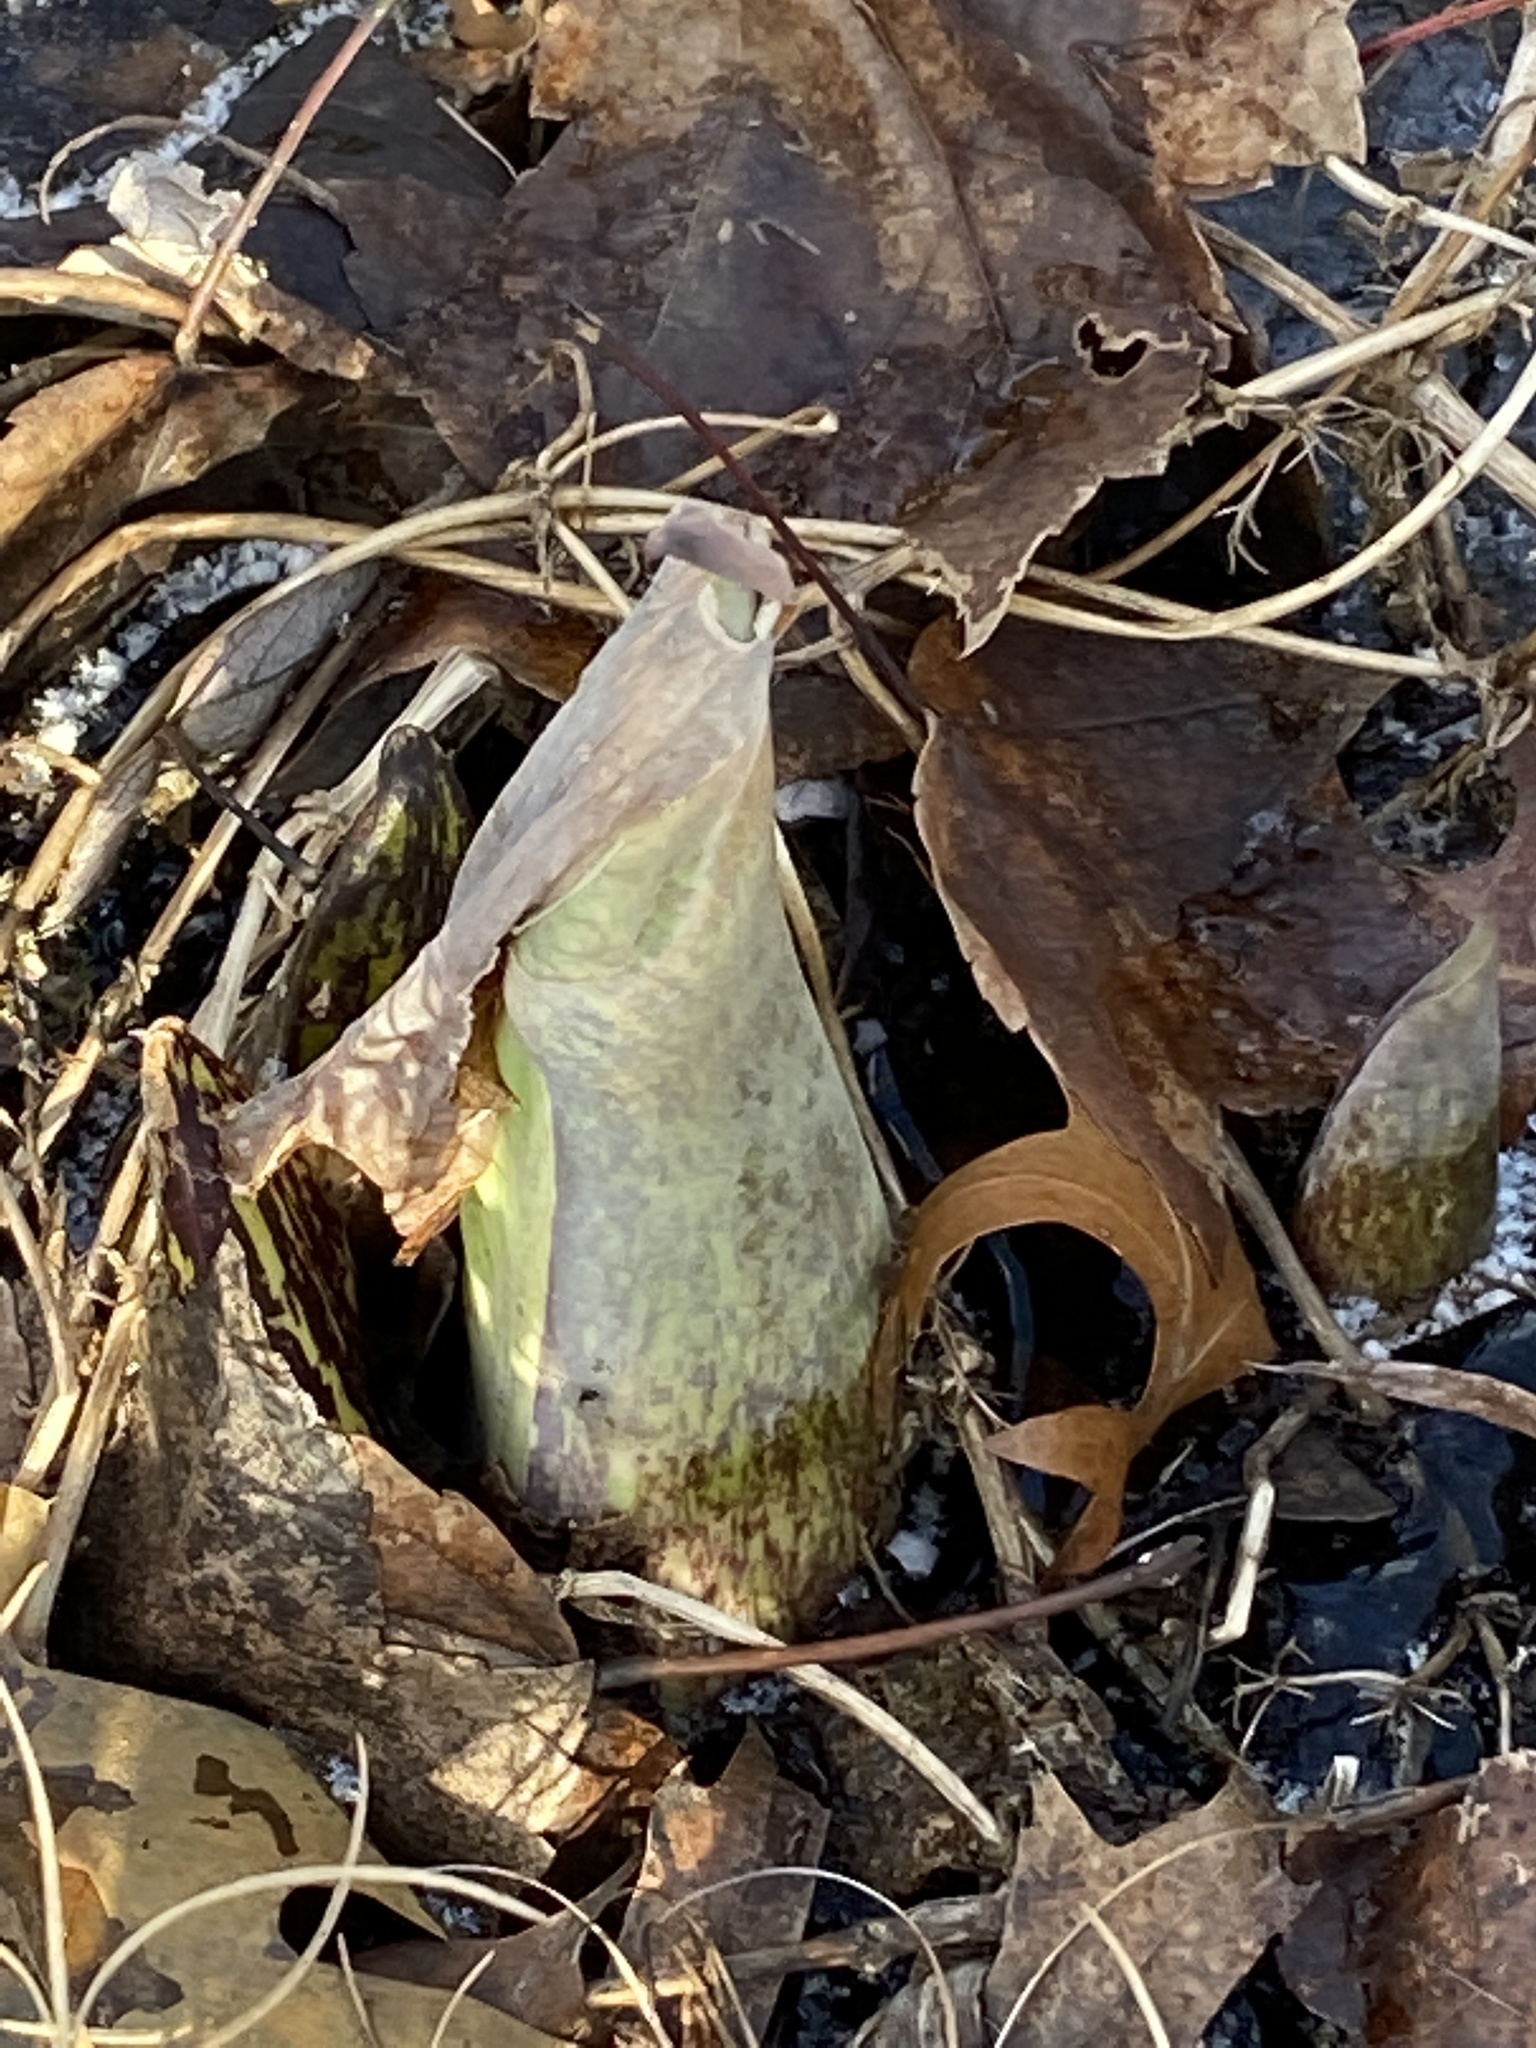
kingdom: Plantae
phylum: Tracheophyta
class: Liliopsida
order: Alismatales
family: Araceae
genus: Symplocarpus
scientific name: Symplocarpus foetidus
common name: Eastern skunk cabbage
